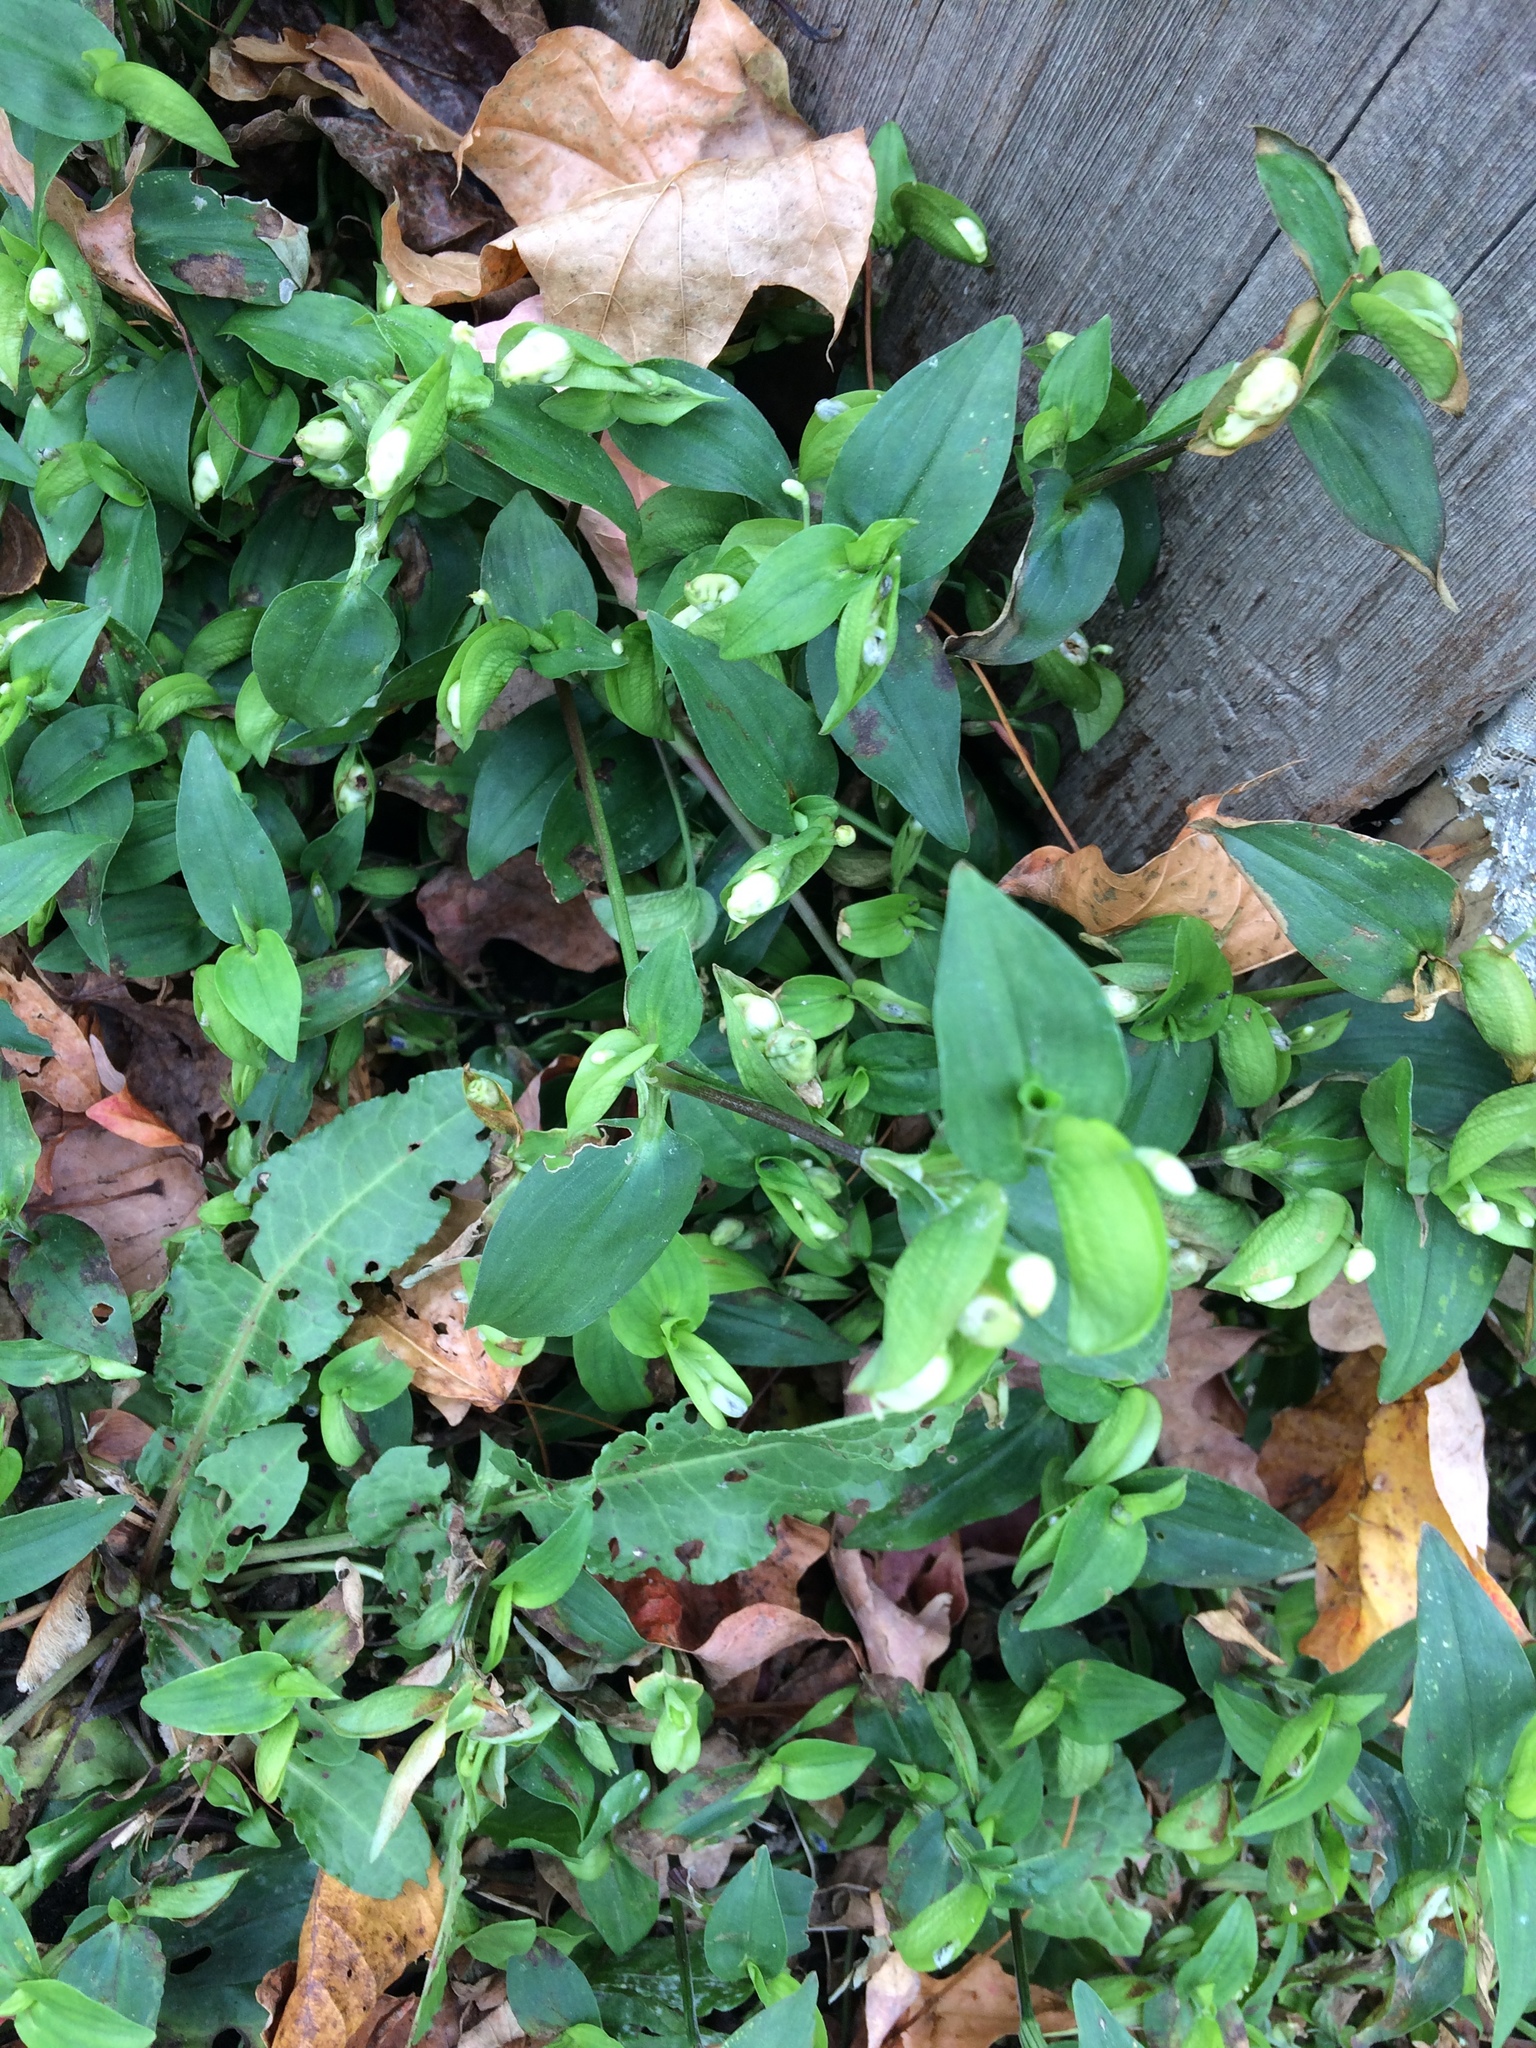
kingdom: Plantae
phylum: Tracheophyta
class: Liliopsida
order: Commelinales
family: Commelinaceae
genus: Commelina
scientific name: Commelina communis
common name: Asiatic dayflower
